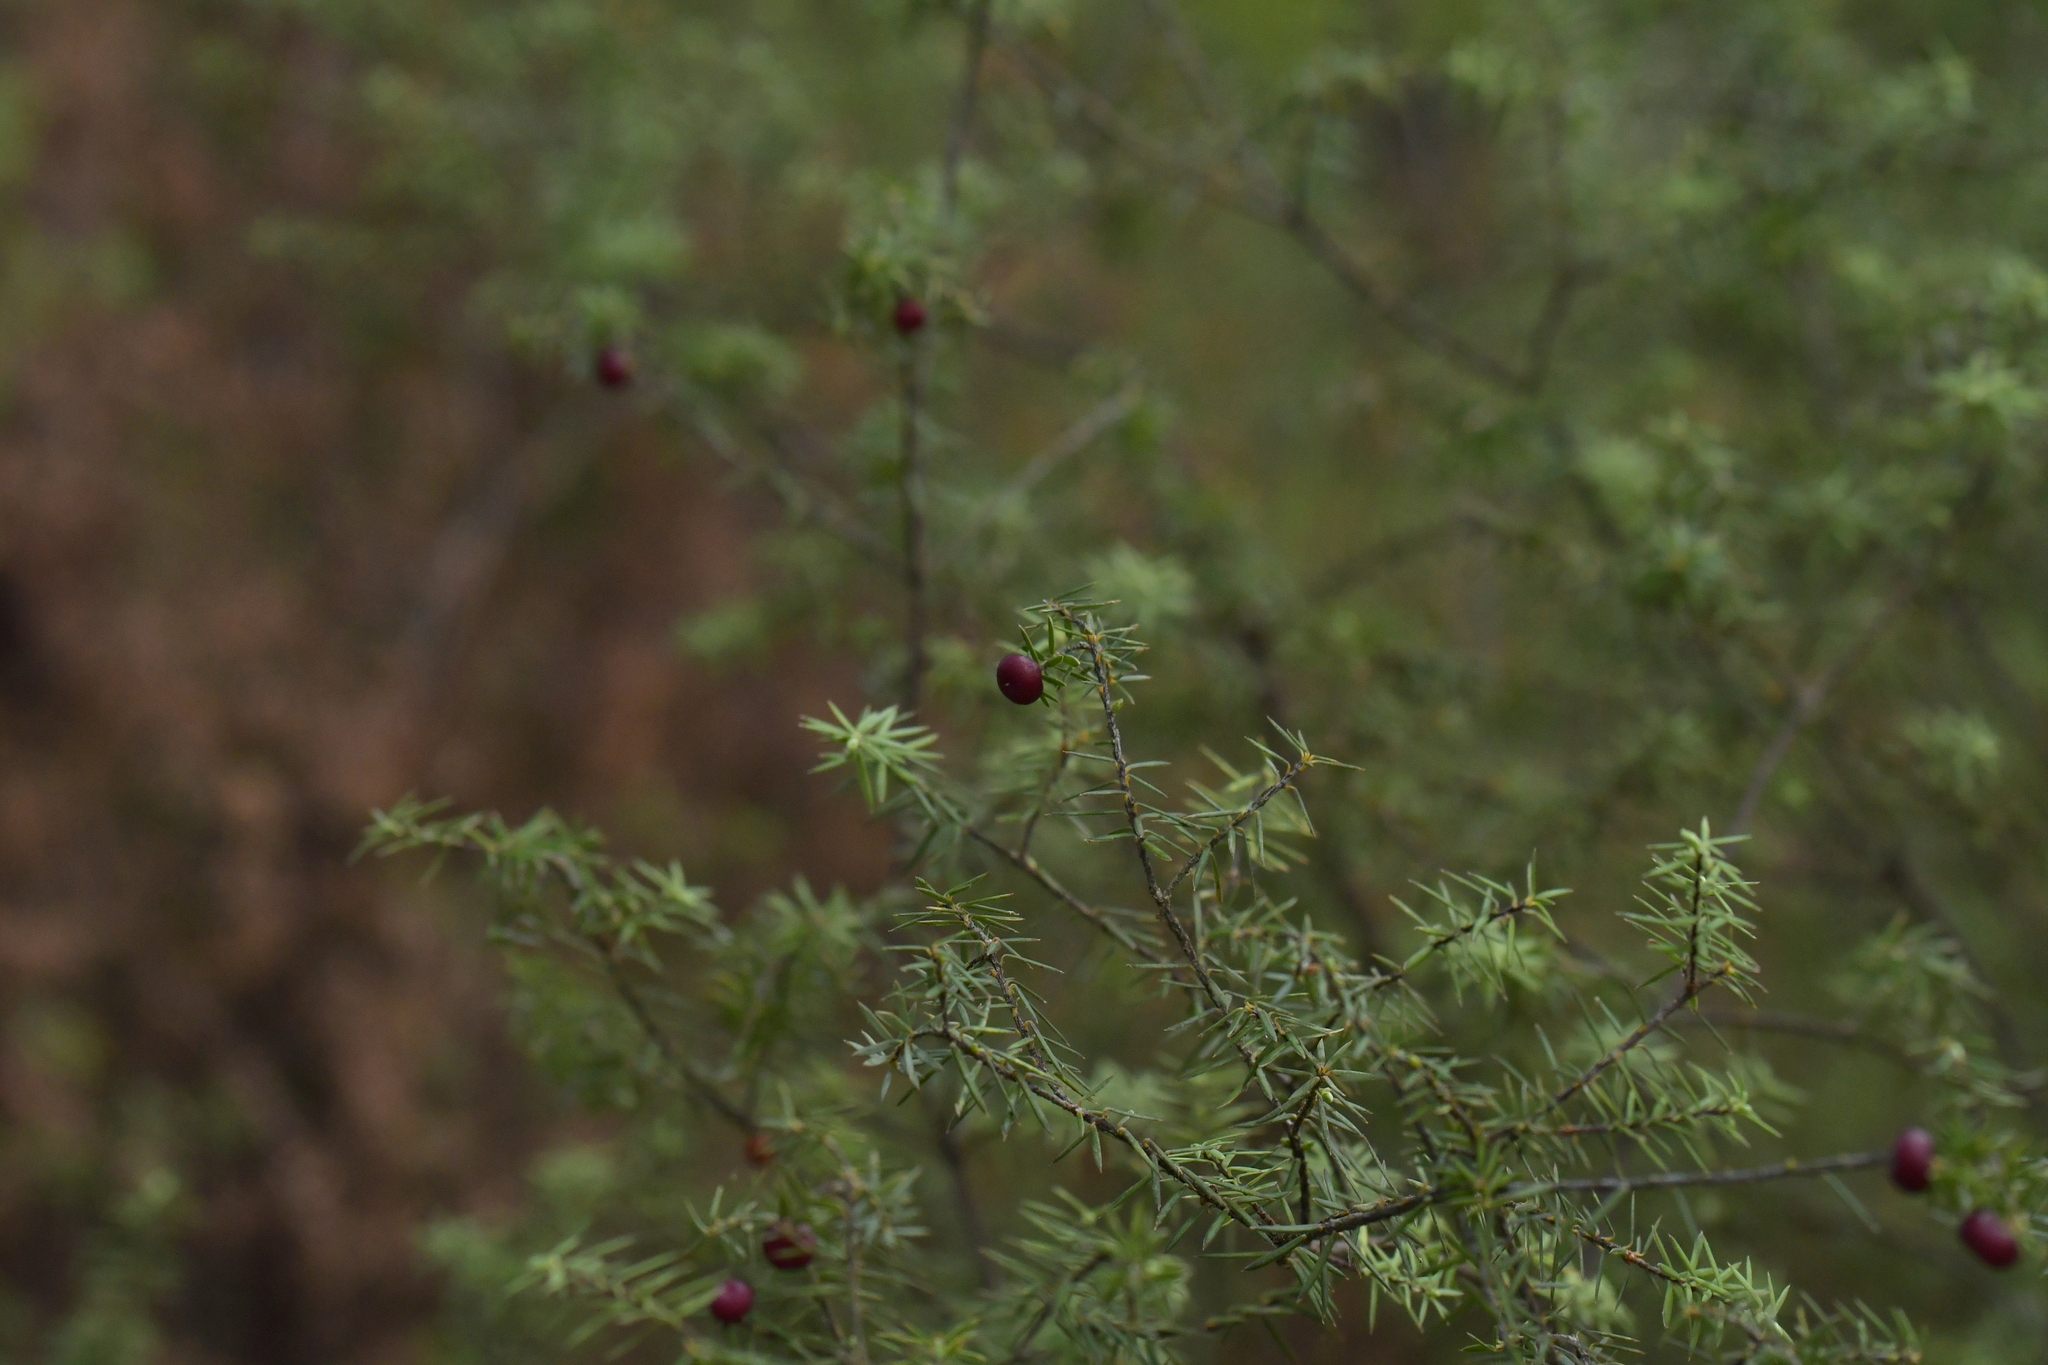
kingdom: Plantae
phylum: Tracheophyta
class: Magnoliopsida
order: Ericales
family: Ericaceae
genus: Leptecophylla
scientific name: Leptecophylla juniperina
